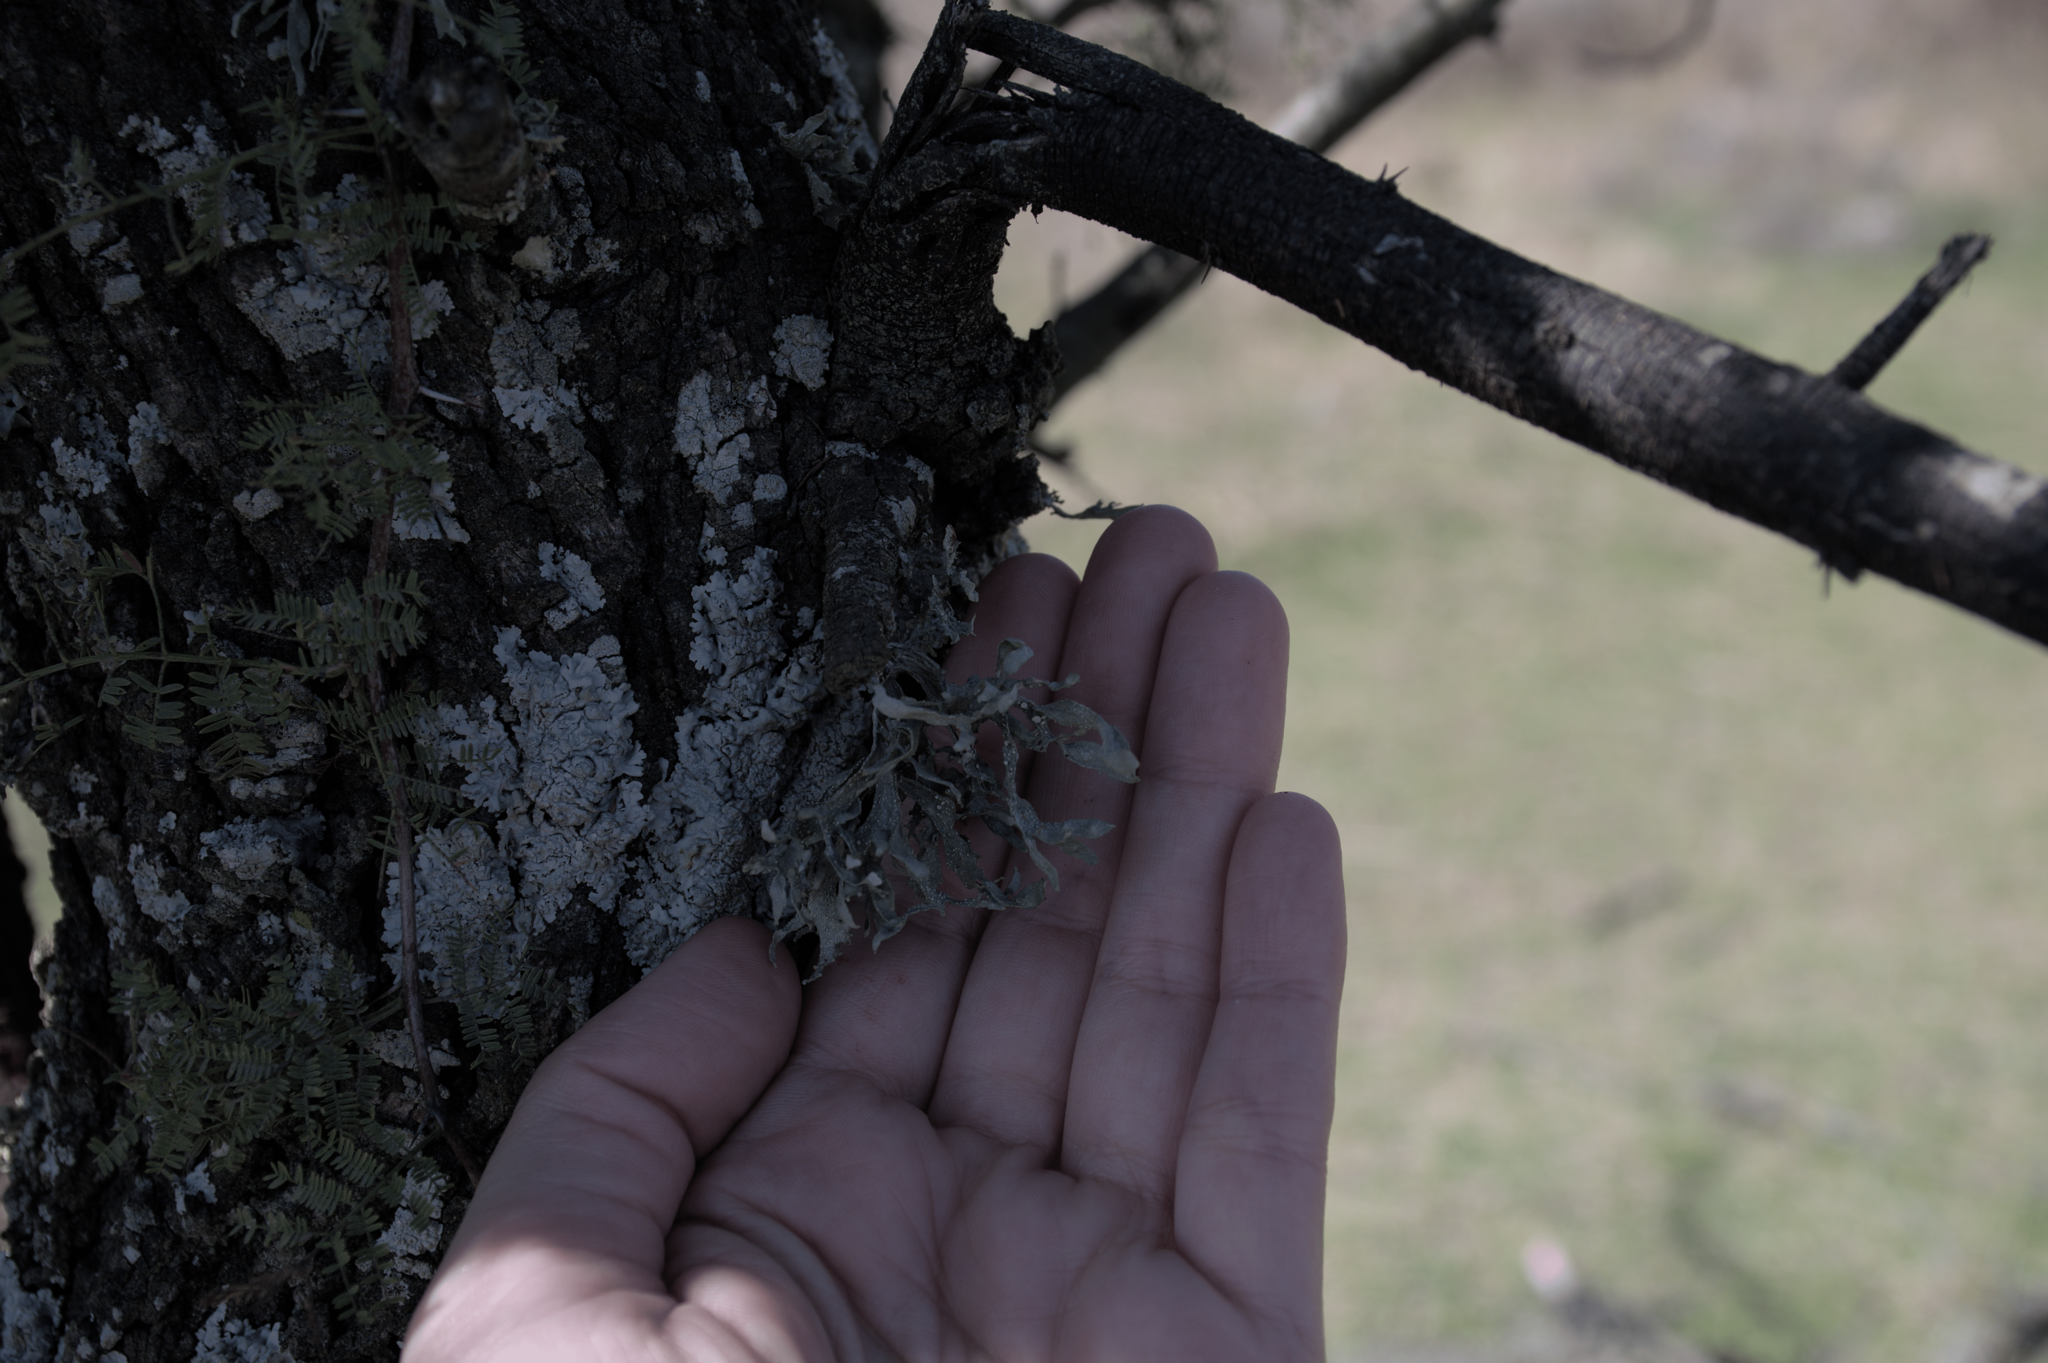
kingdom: Fungi
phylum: Ascomycota
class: Lecanoromycetes
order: Lecanorales
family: Ramalinaceae
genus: Ramalina
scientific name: Ramalina celastri
